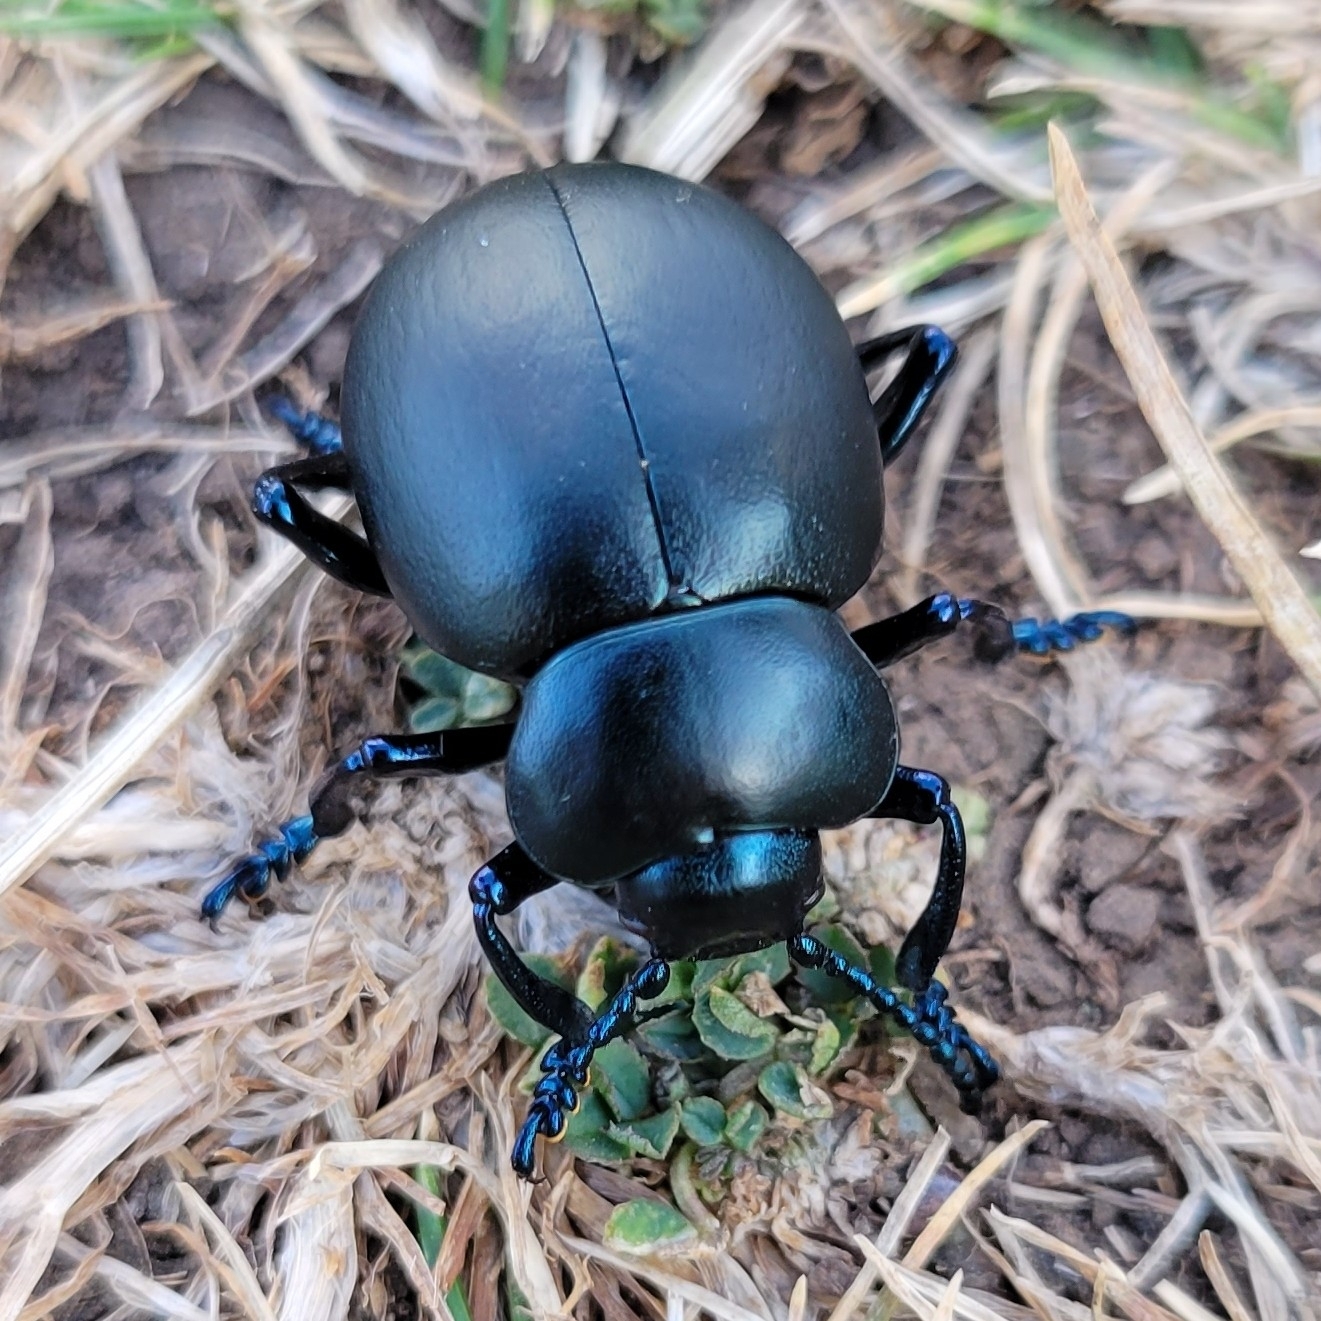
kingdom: Animalia
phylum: Arthropoda
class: Insecta
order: Coleoptera
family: Chrysomelidae
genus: Timarcha
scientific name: Timarcha tenebricosa
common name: Bloody-nosed beetle
